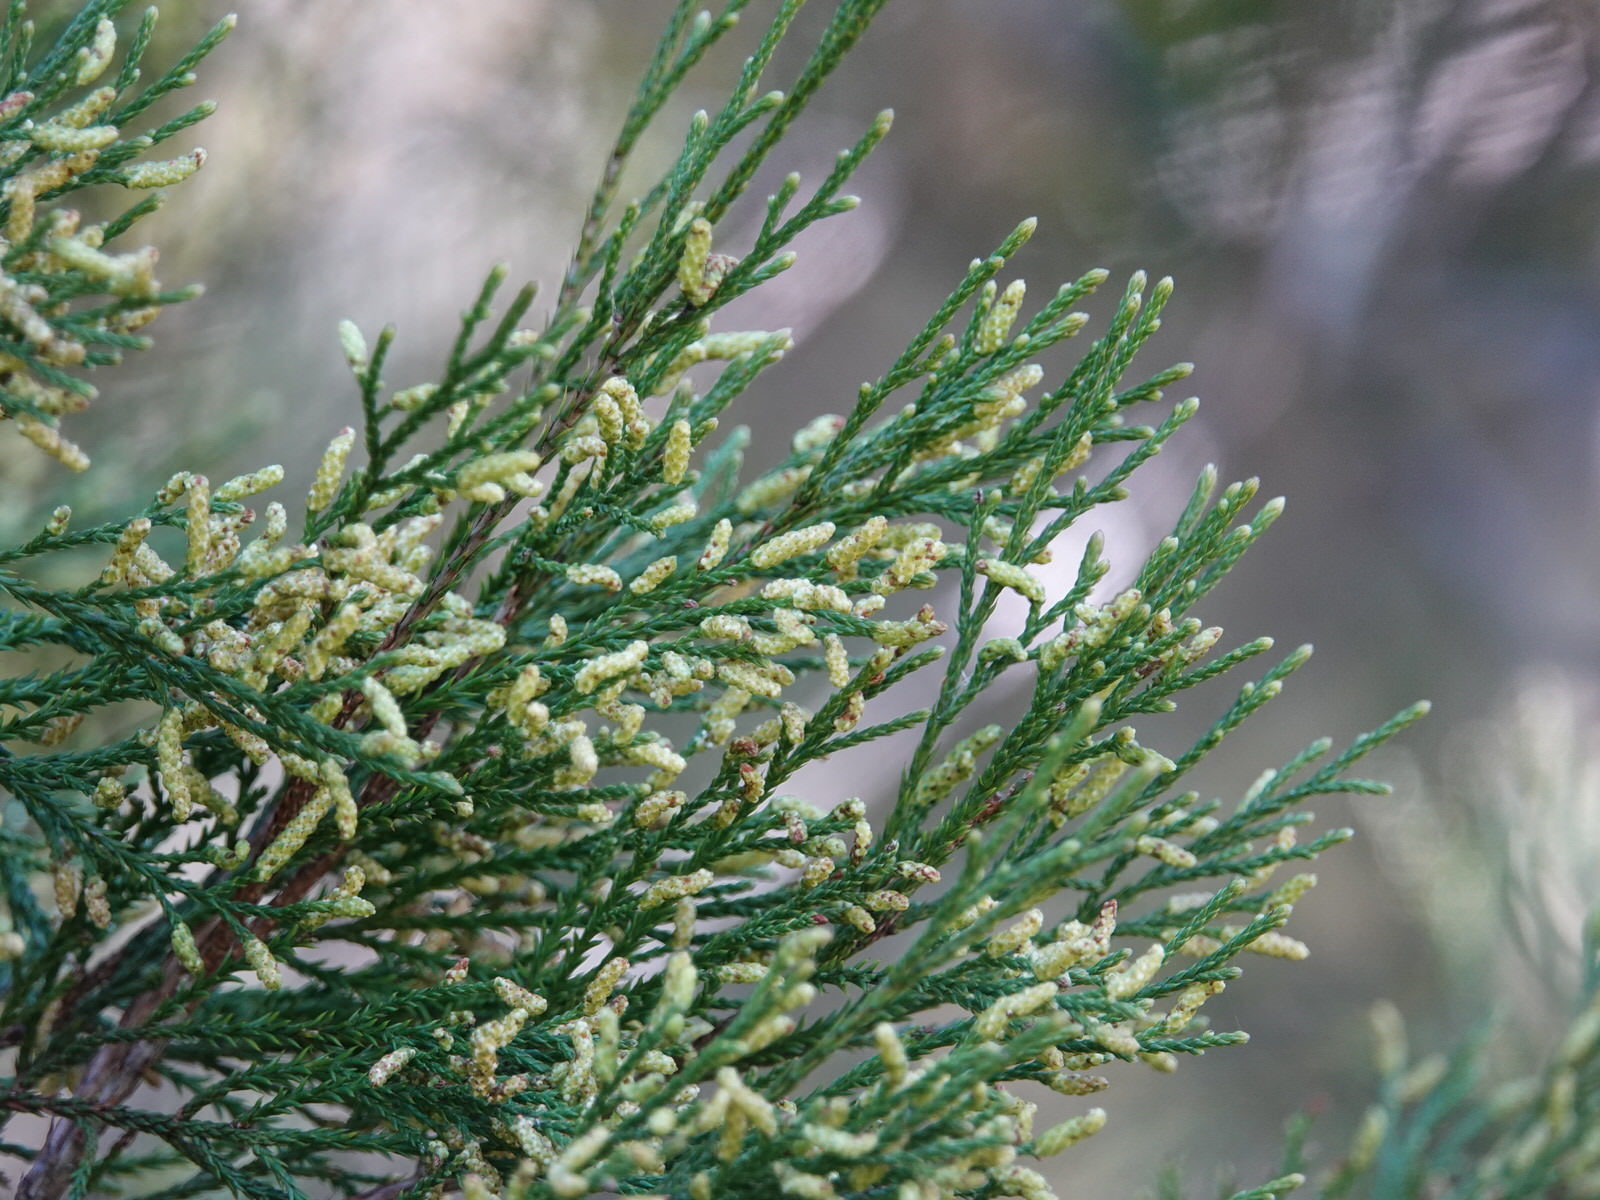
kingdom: Plantae
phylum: Tracheophyta
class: Pinopsida
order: Pinales
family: Podocarpaceae
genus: Dacrycarpus
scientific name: Dacrycarpus dacrydioides
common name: White pine
